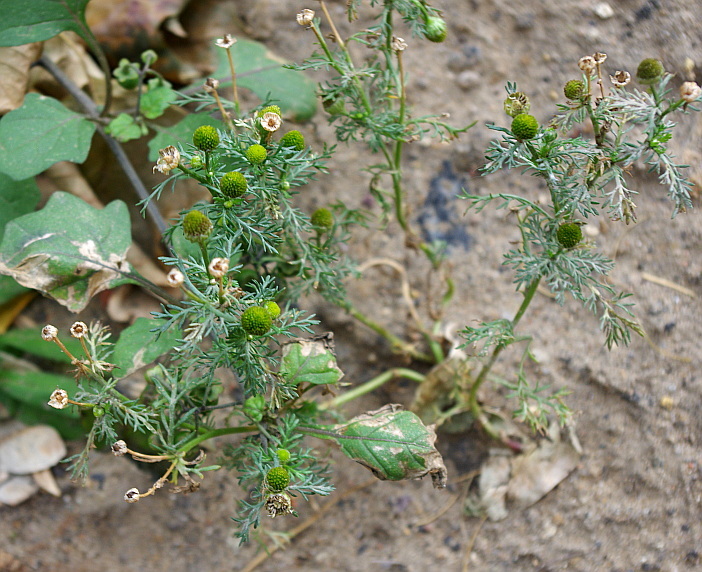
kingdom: Plantae
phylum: Tracheophyta
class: Magnoliopsida
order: Asterales
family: Asteraceae
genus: Matricaria
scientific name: Matricaria discoidea
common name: Disc mayweed
